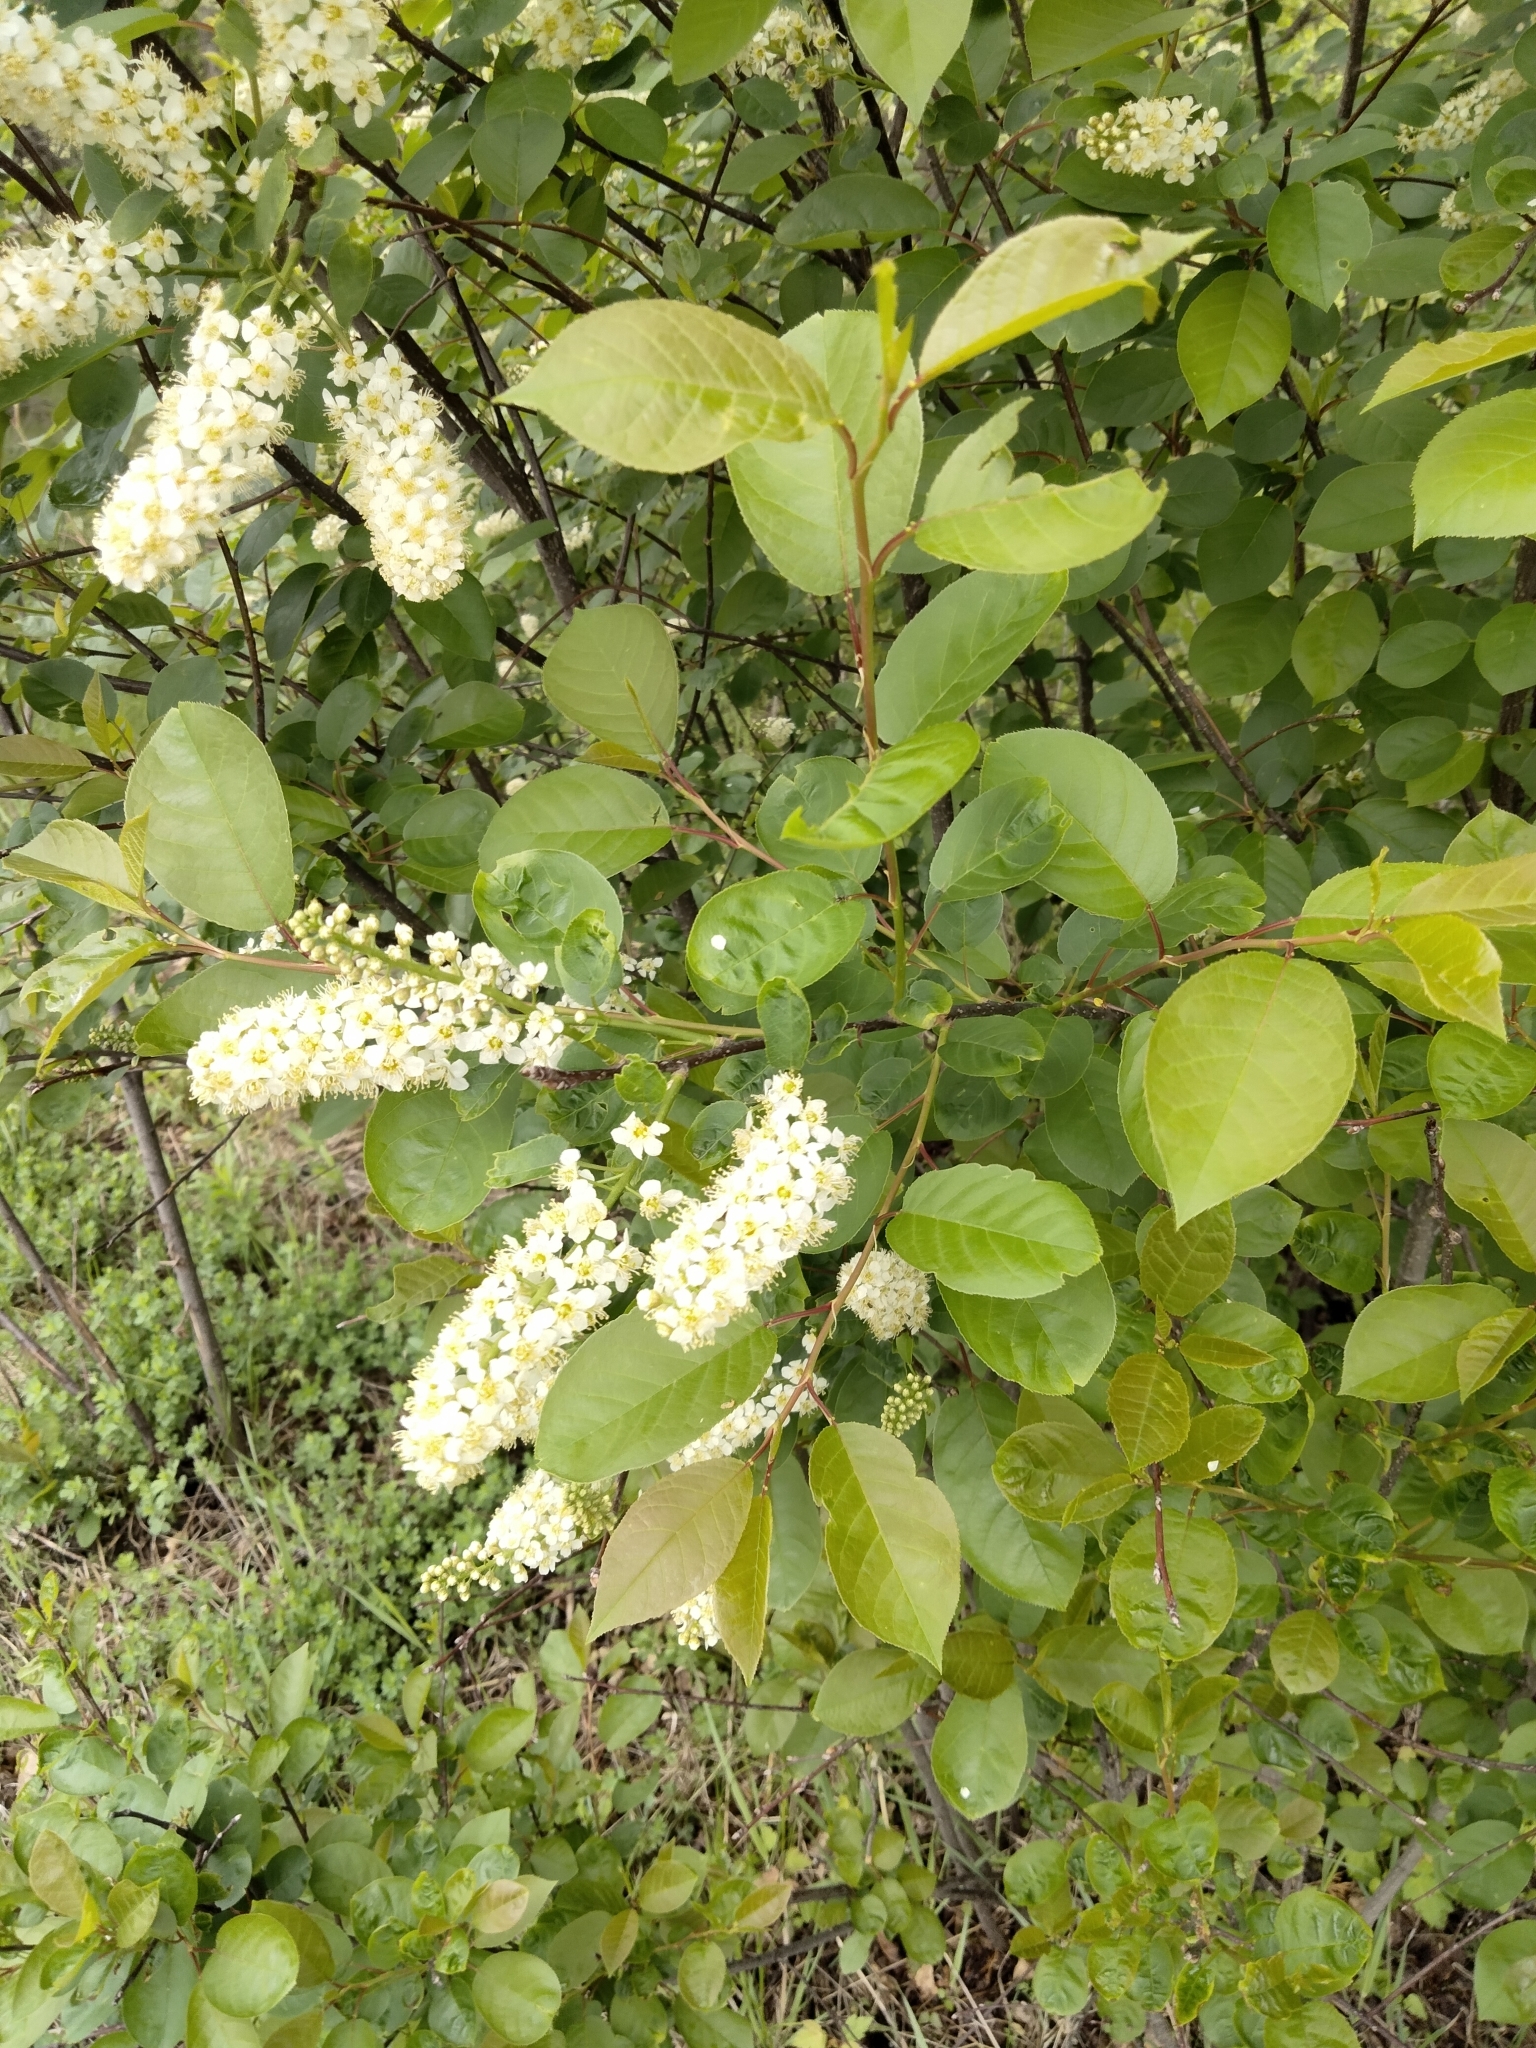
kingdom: Plantae
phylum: Tracheophyta
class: Magnoliopsida
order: Rosales
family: Rosaceae
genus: Prunus
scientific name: Prunus virginiana
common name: Chokecherry
